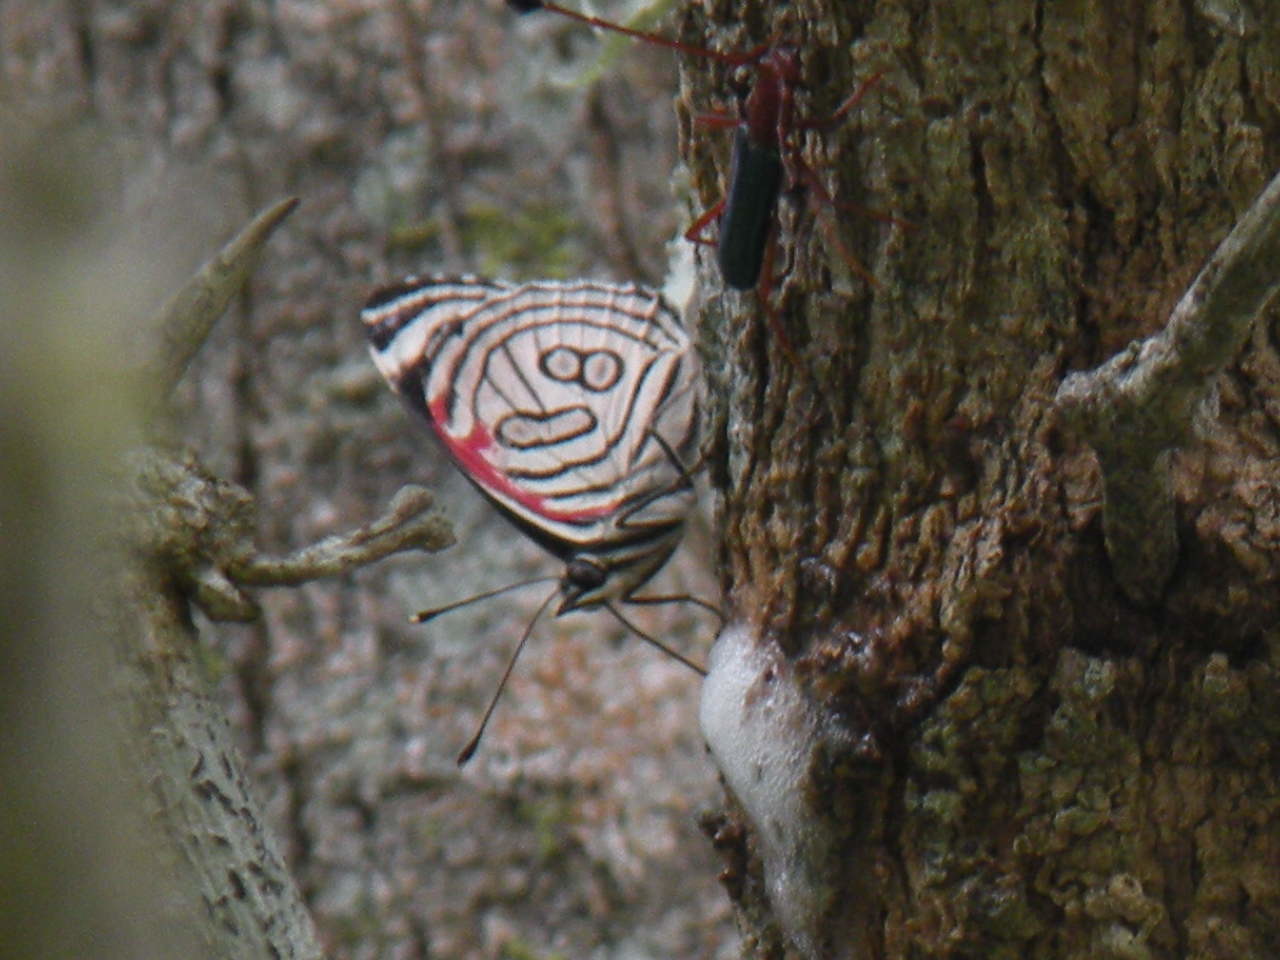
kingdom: Animalia
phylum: Arthropoda
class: Insecta
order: Lepidoptera
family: Nymphalidae
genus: Diaethria
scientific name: Diaethria candrena
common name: Number eighty
